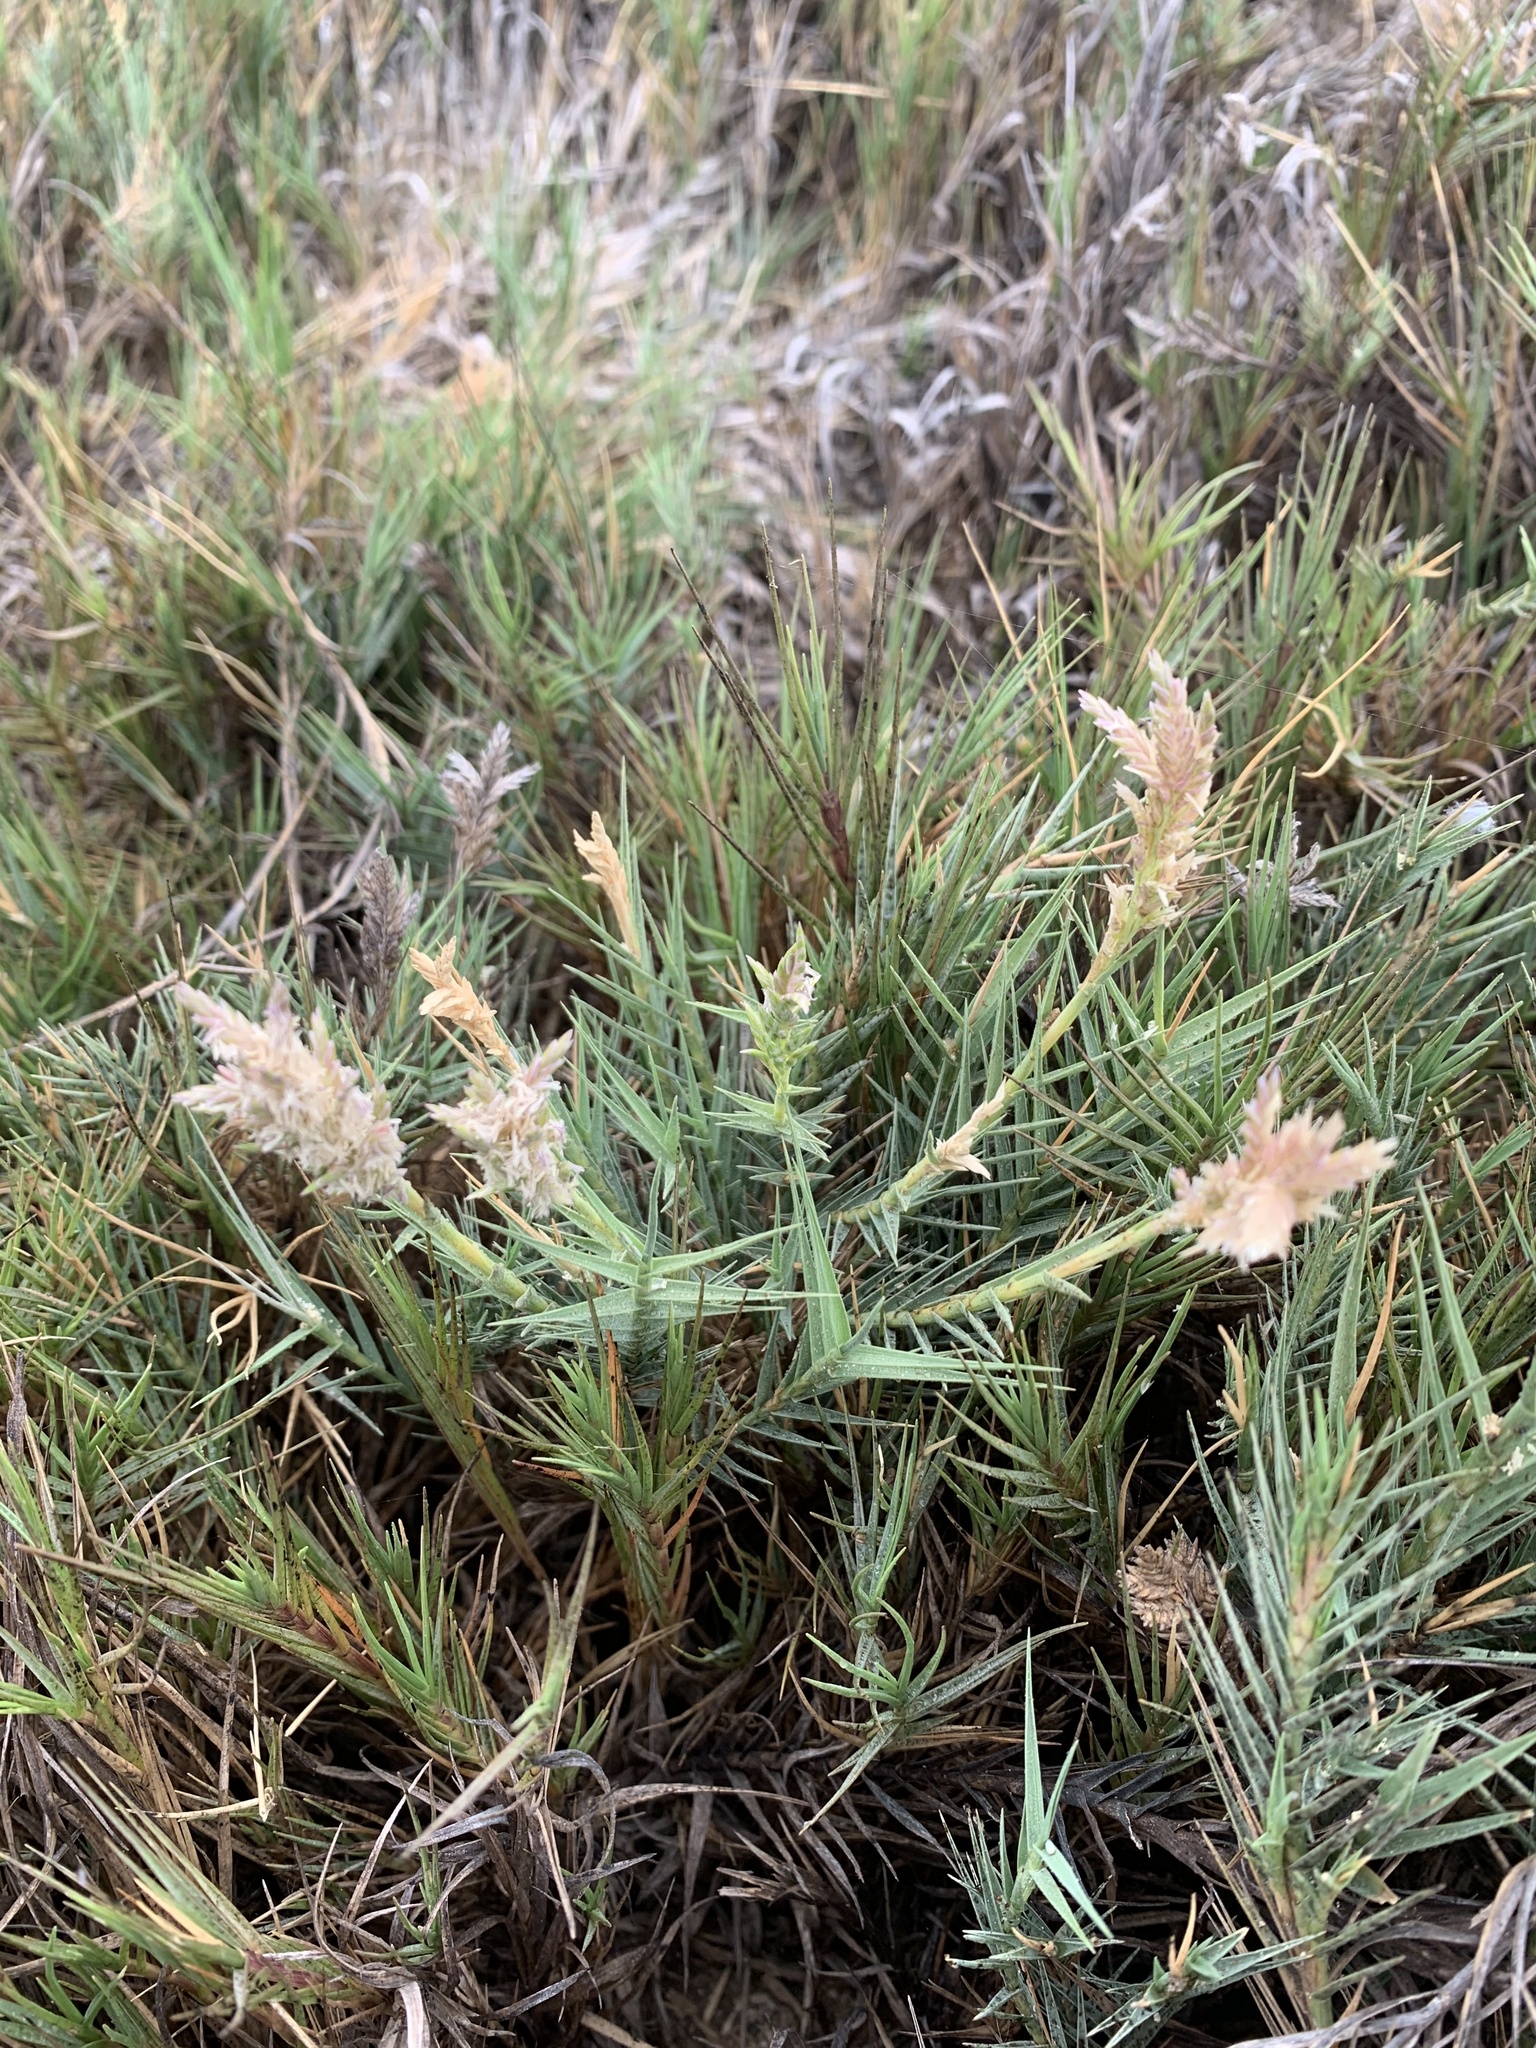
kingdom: Plantae
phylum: Tracheophyta
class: Liliopsida
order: Poales
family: Poaceae
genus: Distichlis
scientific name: Distichlis spicata
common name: Saltgrass
